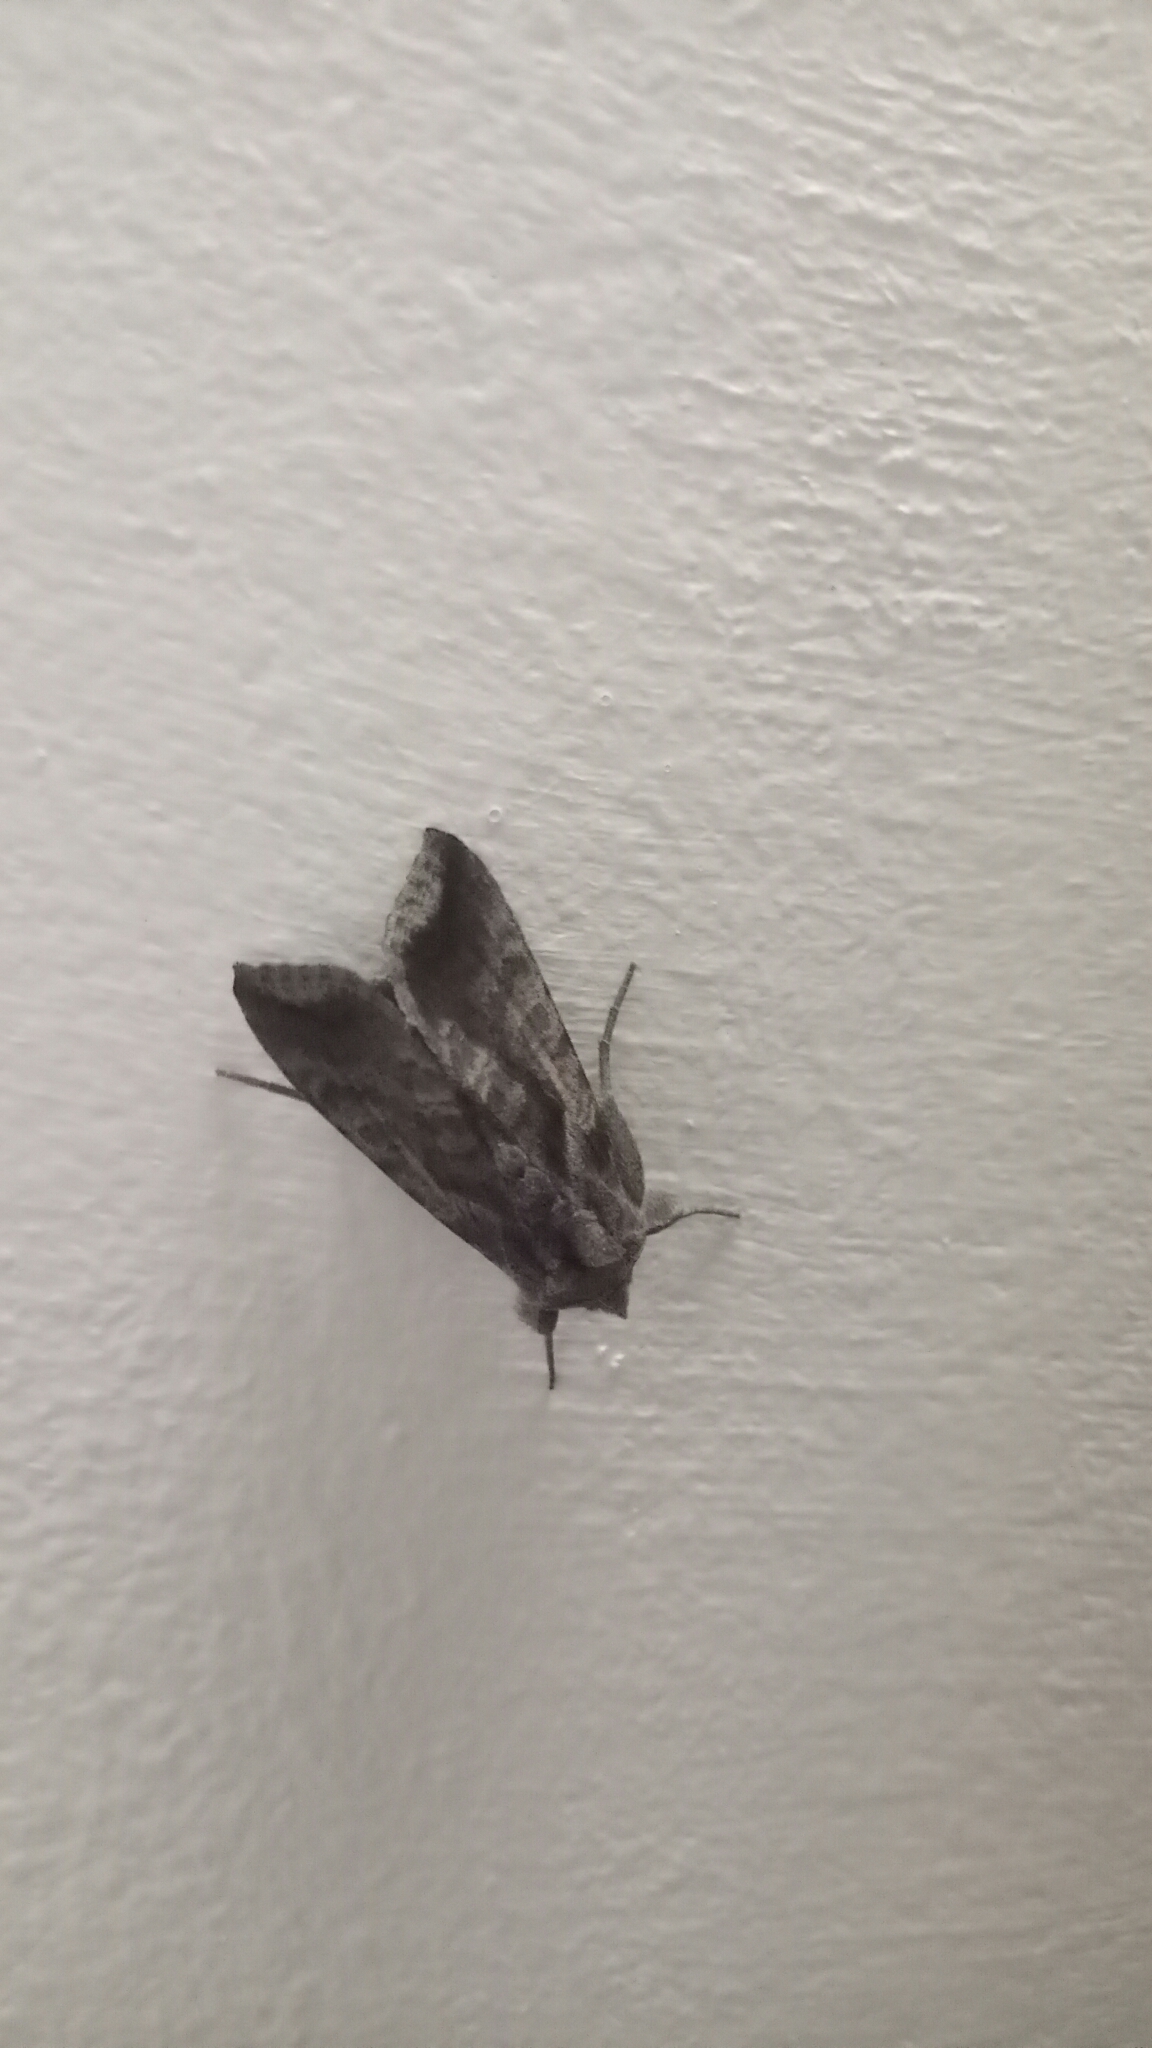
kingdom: Animalia
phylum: Arthropoda
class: Insecta
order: Lepidoptera
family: Noctuidae
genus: Anadevidia
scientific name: Anadevidia peponis
